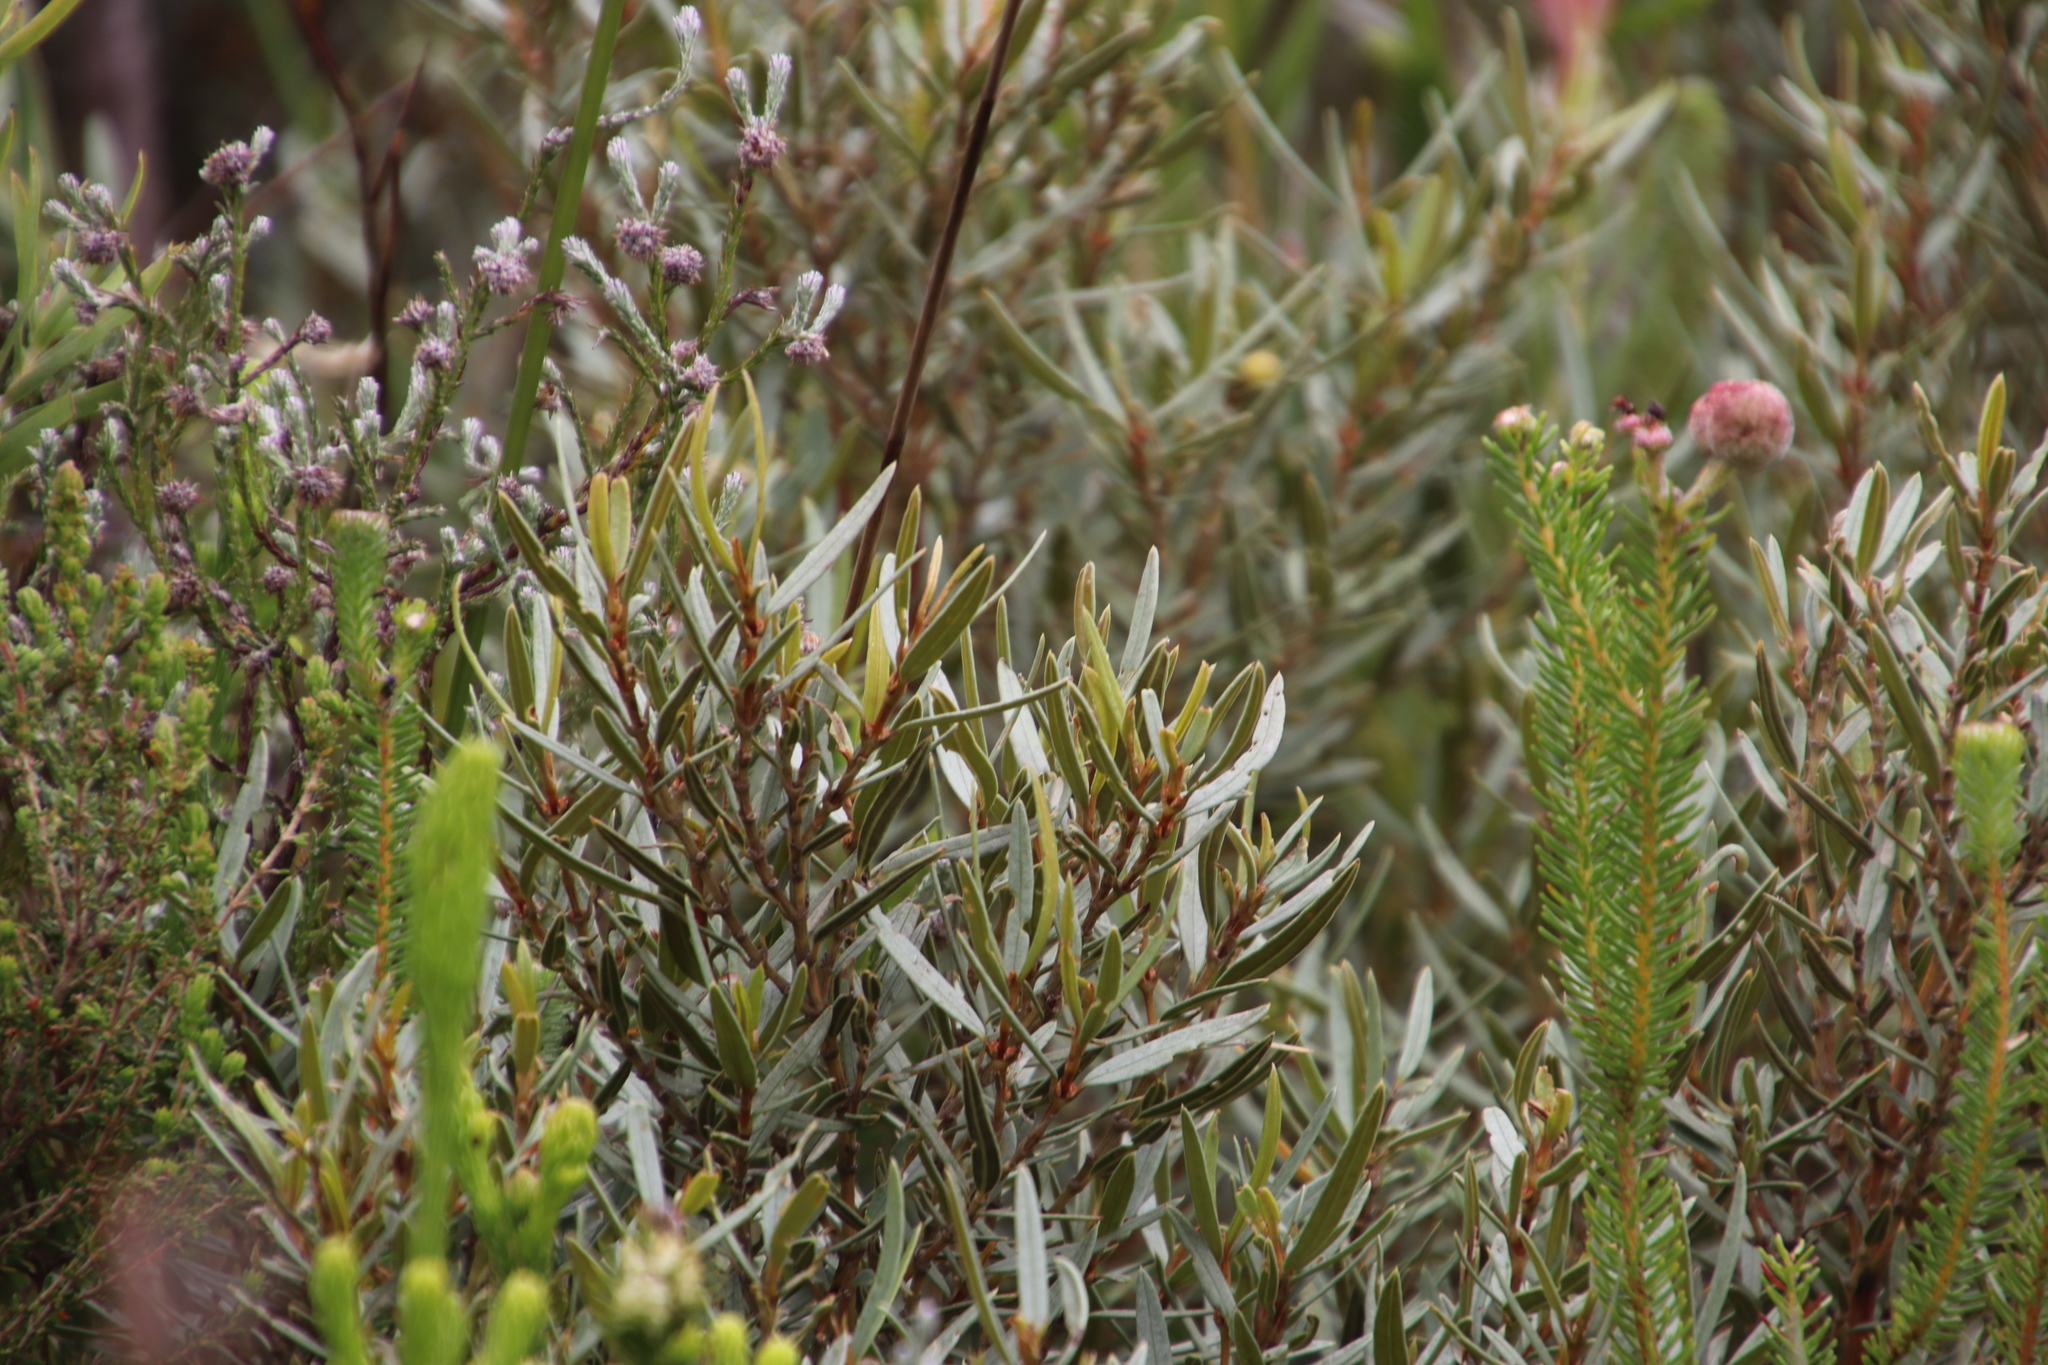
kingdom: Plantae
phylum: Tracheophyta
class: Magnoliopsida
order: Cornales
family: Grubbiaceae
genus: Grubbia
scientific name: Grubbia tomentosa
